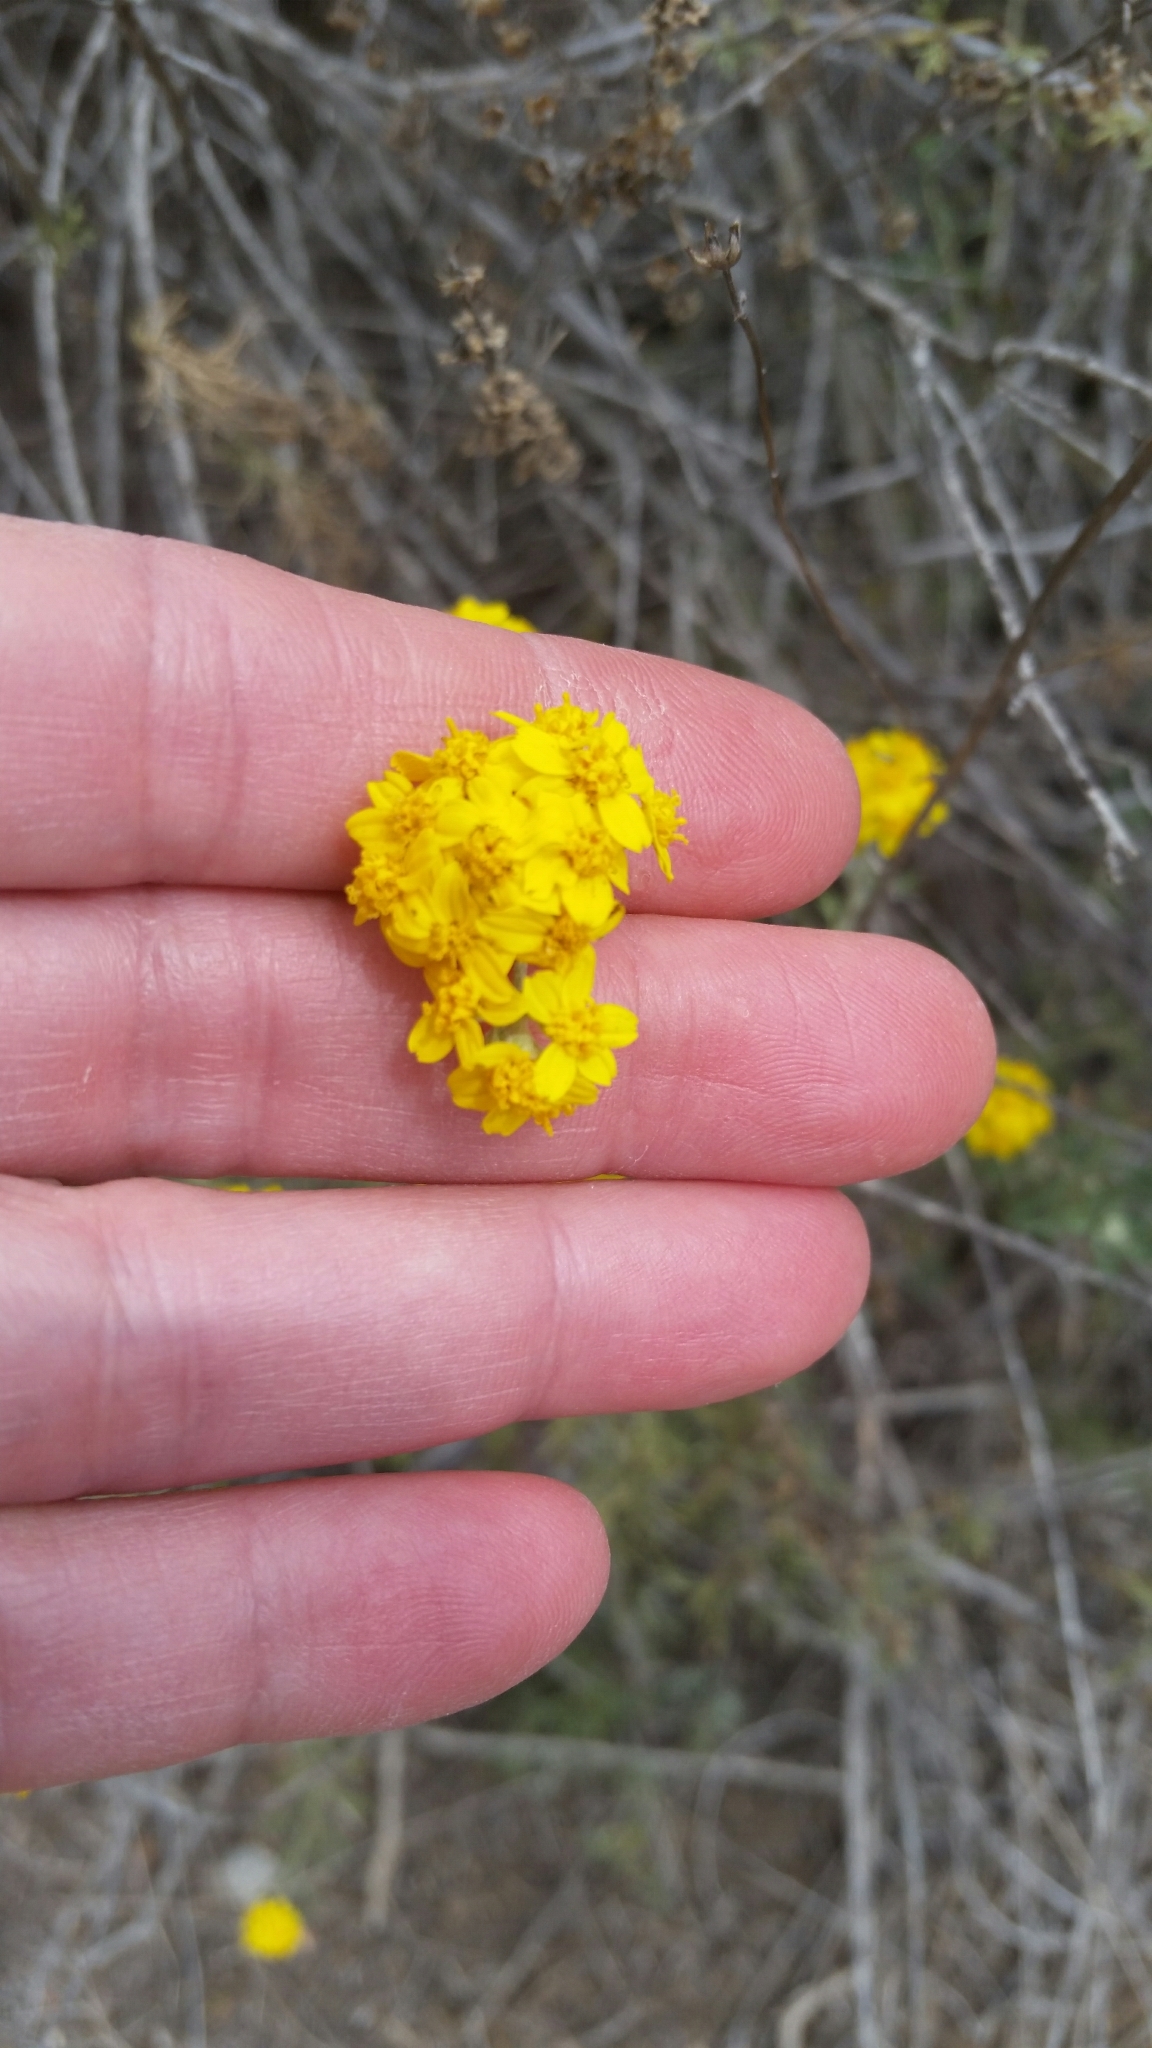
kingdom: Plantae
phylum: Tracheophyta
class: Magnoliopsida
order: Asterales
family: Asteraceae
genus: Eriophyllum
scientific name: Eriophyllum confertiflorum
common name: Golden-yarrow
